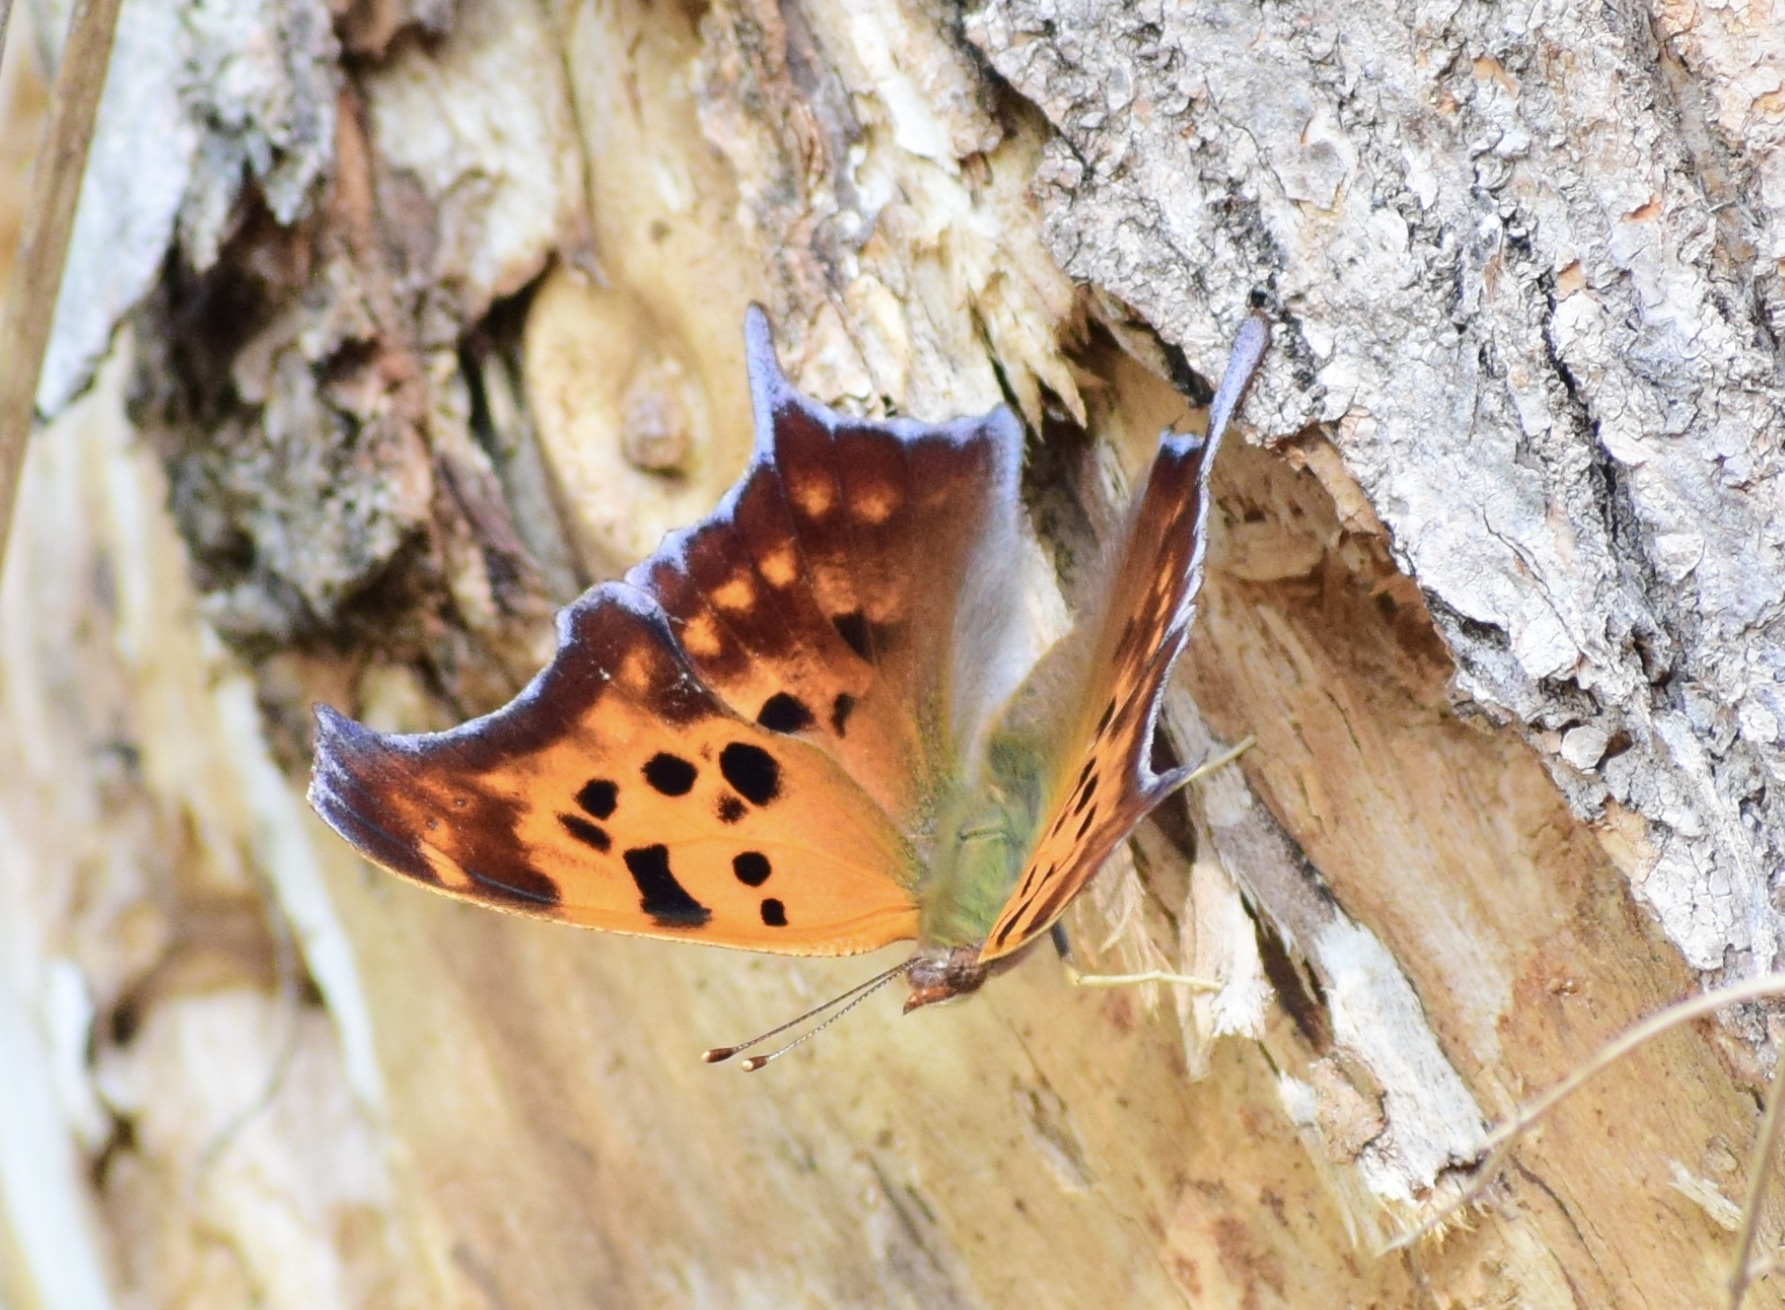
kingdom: Animalia
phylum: Arthropoda
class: Insecta
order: Lepidoptera
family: Nymphalidae
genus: Polygonia
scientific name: Polygonia interrogationis
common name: Question mark
